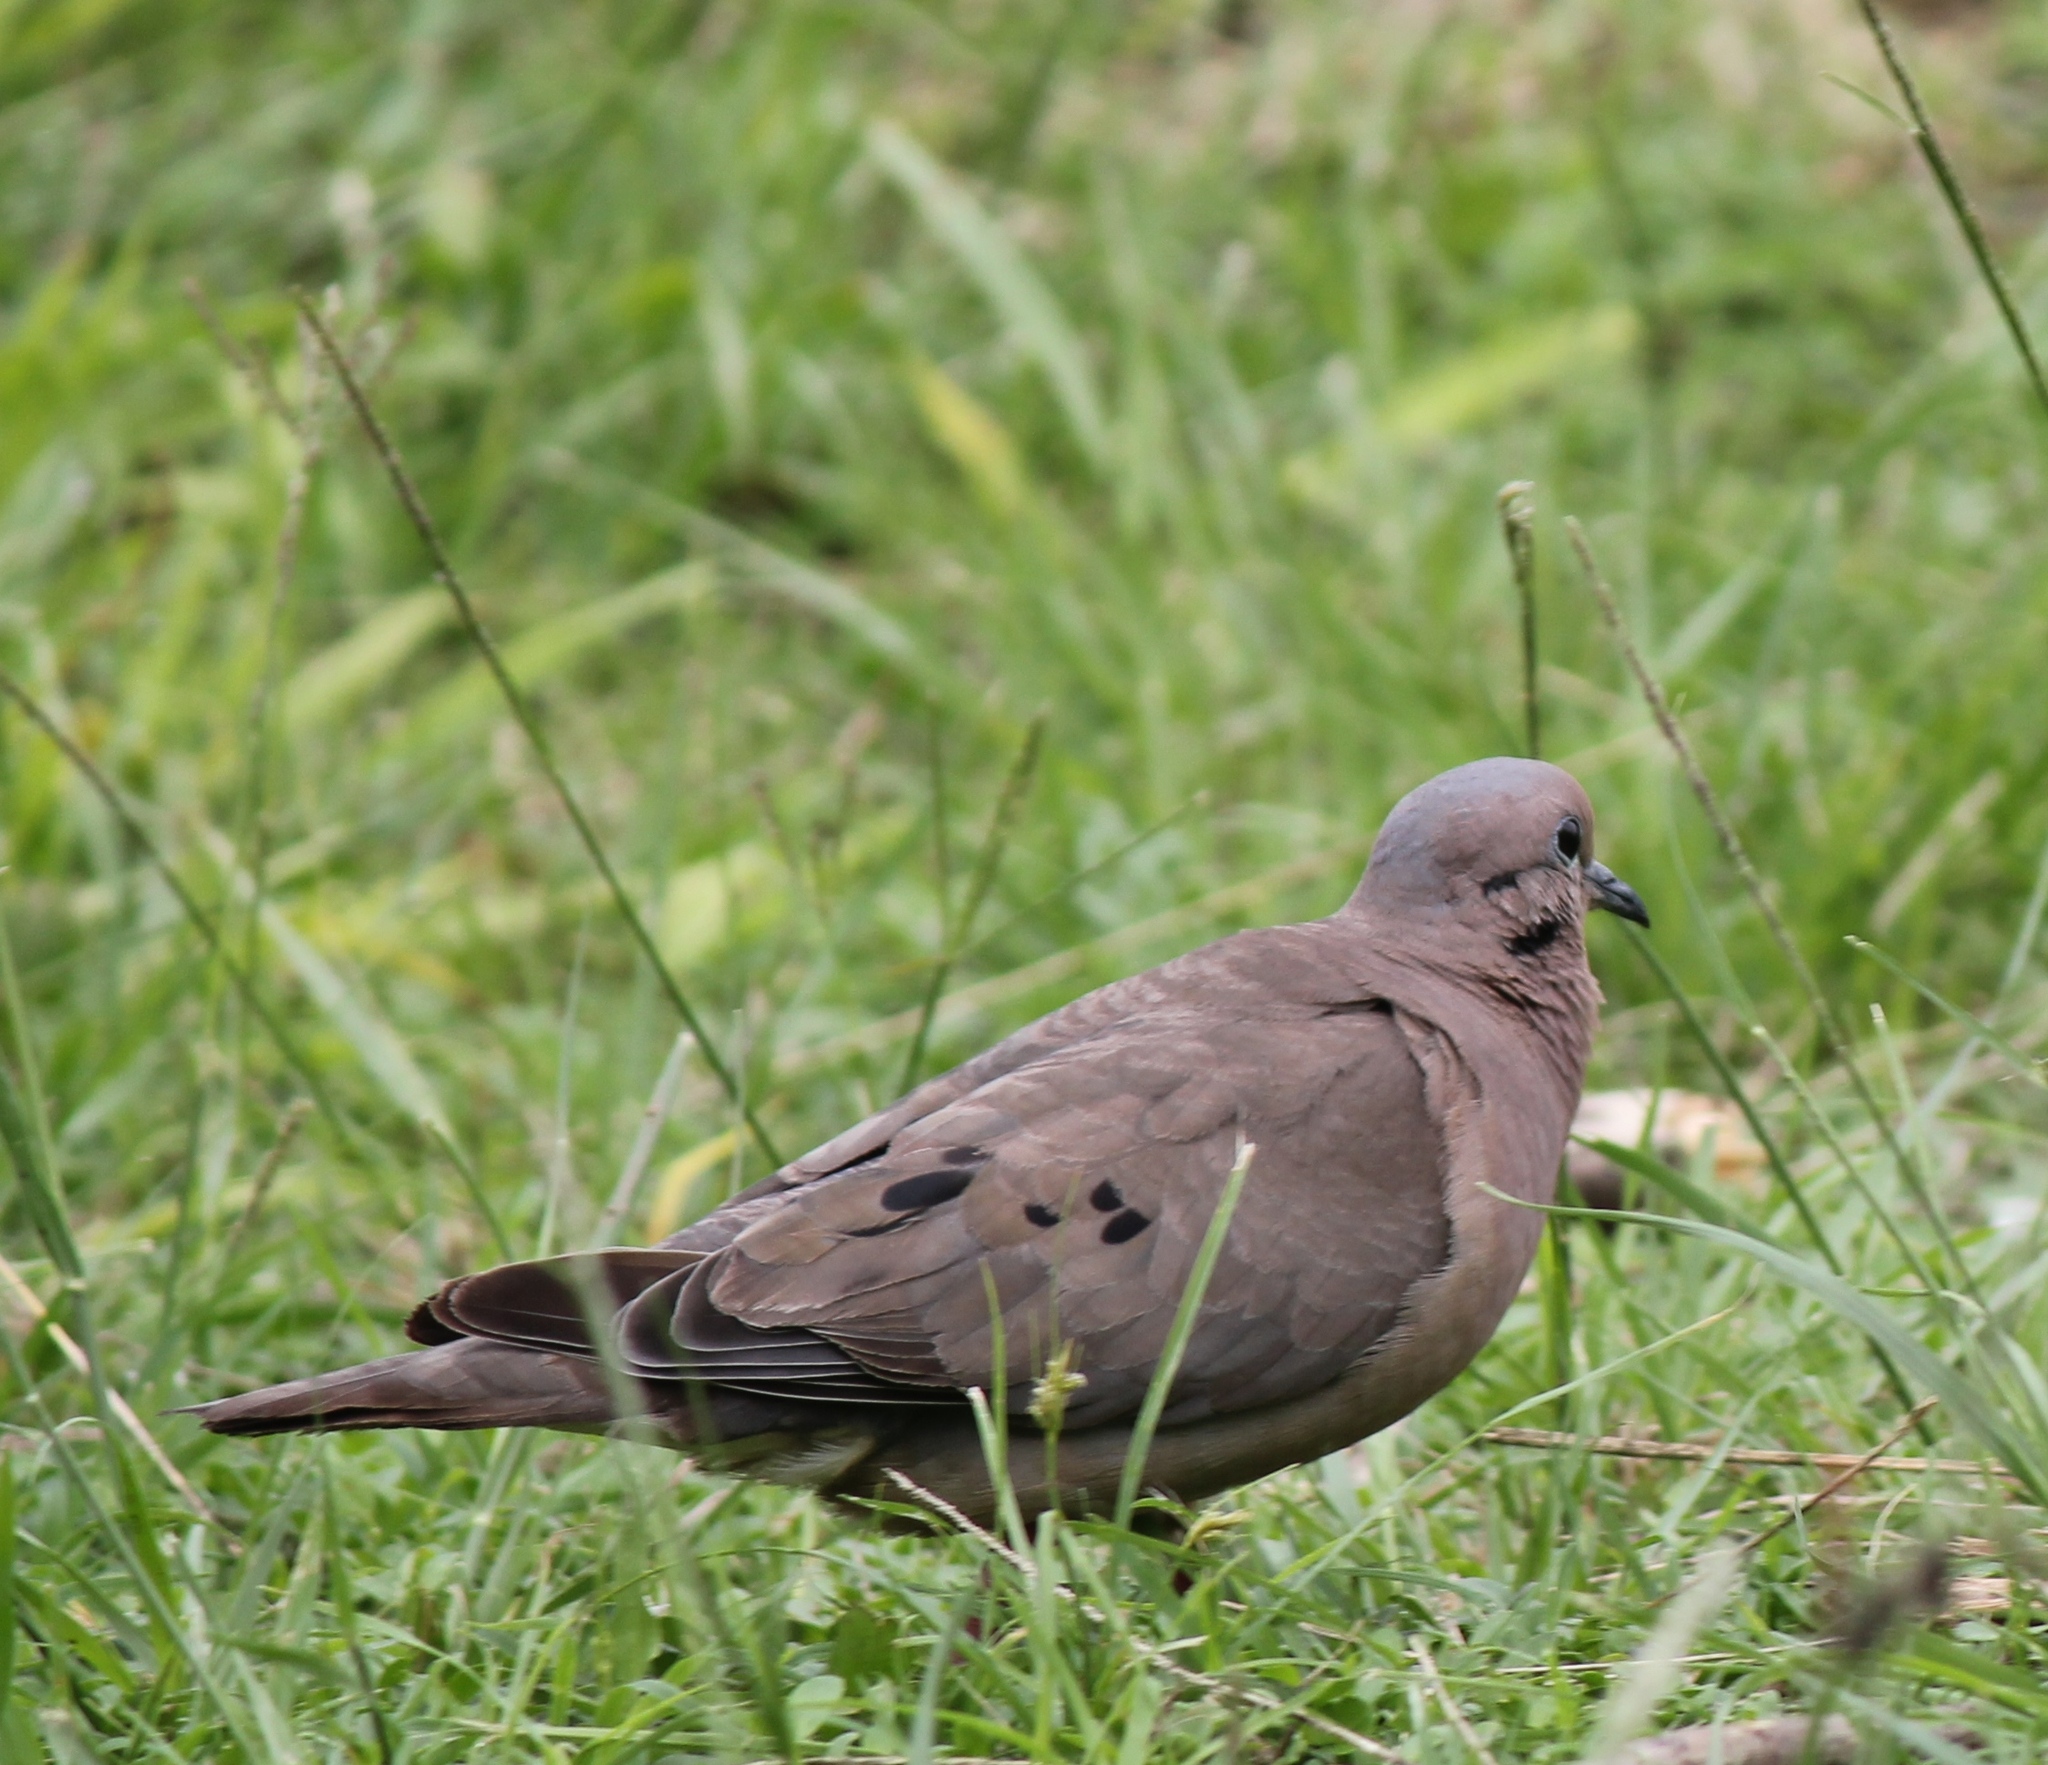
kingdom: Animalia
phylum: Chordata
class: Aves
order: Columbiformes
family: Columbidae
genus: Zenaida
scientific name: Zenaida auriculata
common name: Eared dove
